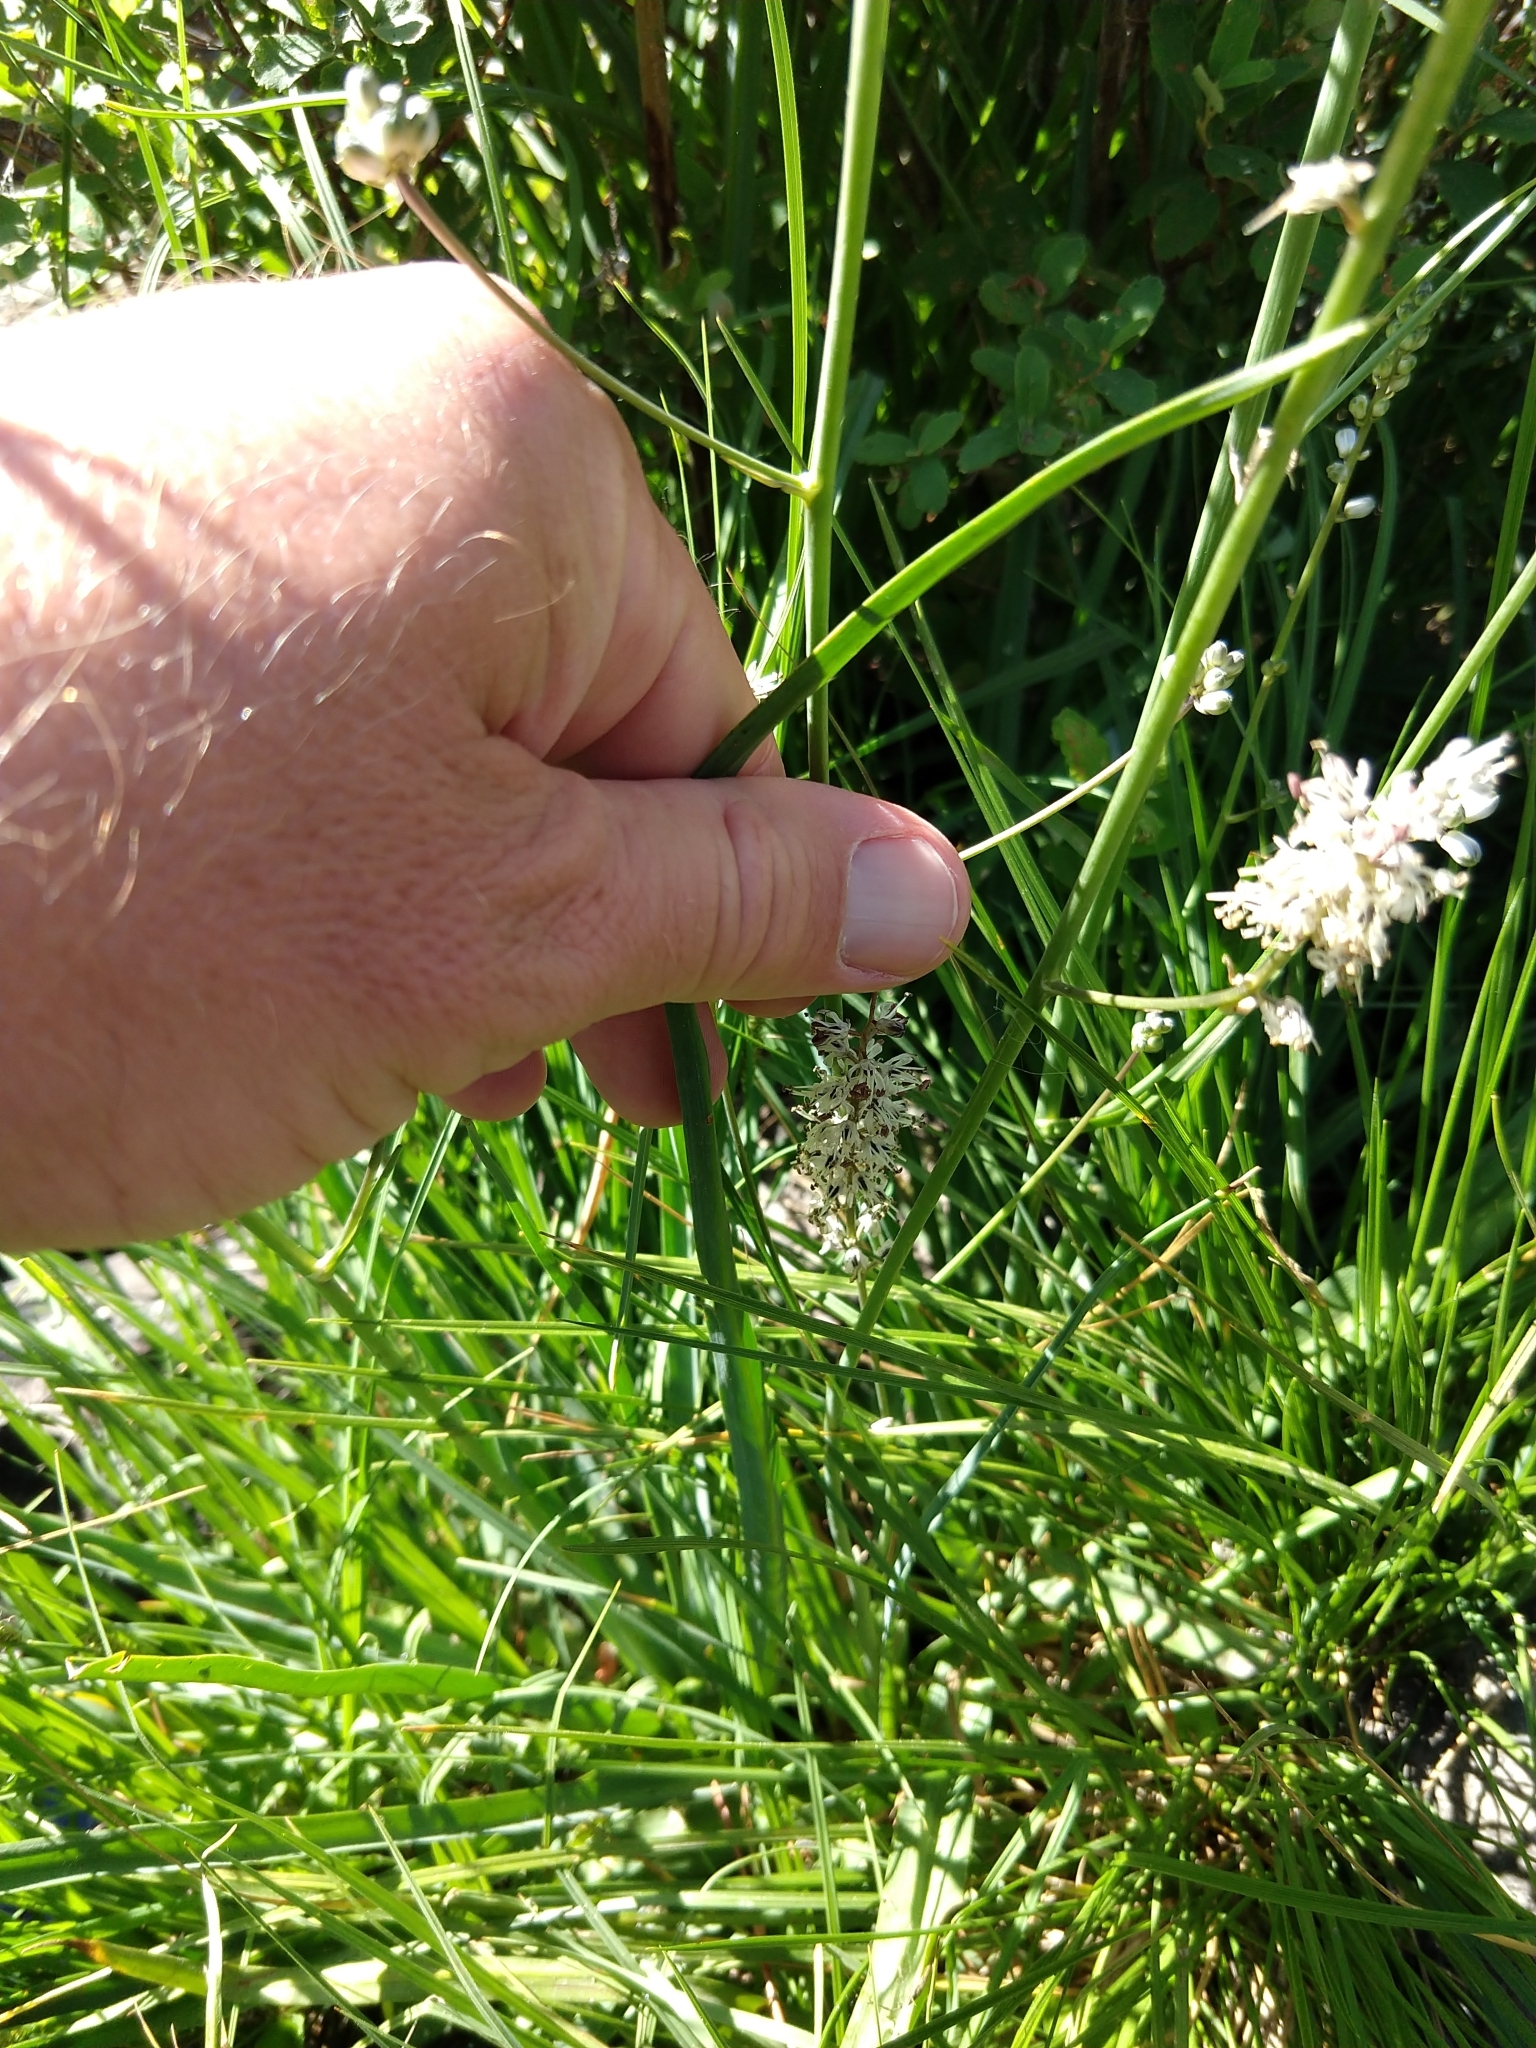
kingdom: Plantae
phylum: Tracheophyta
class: Liliopsida
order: Asparagales
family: Asparagaceae
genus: Hastingsia
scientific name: Hastingsia alba
